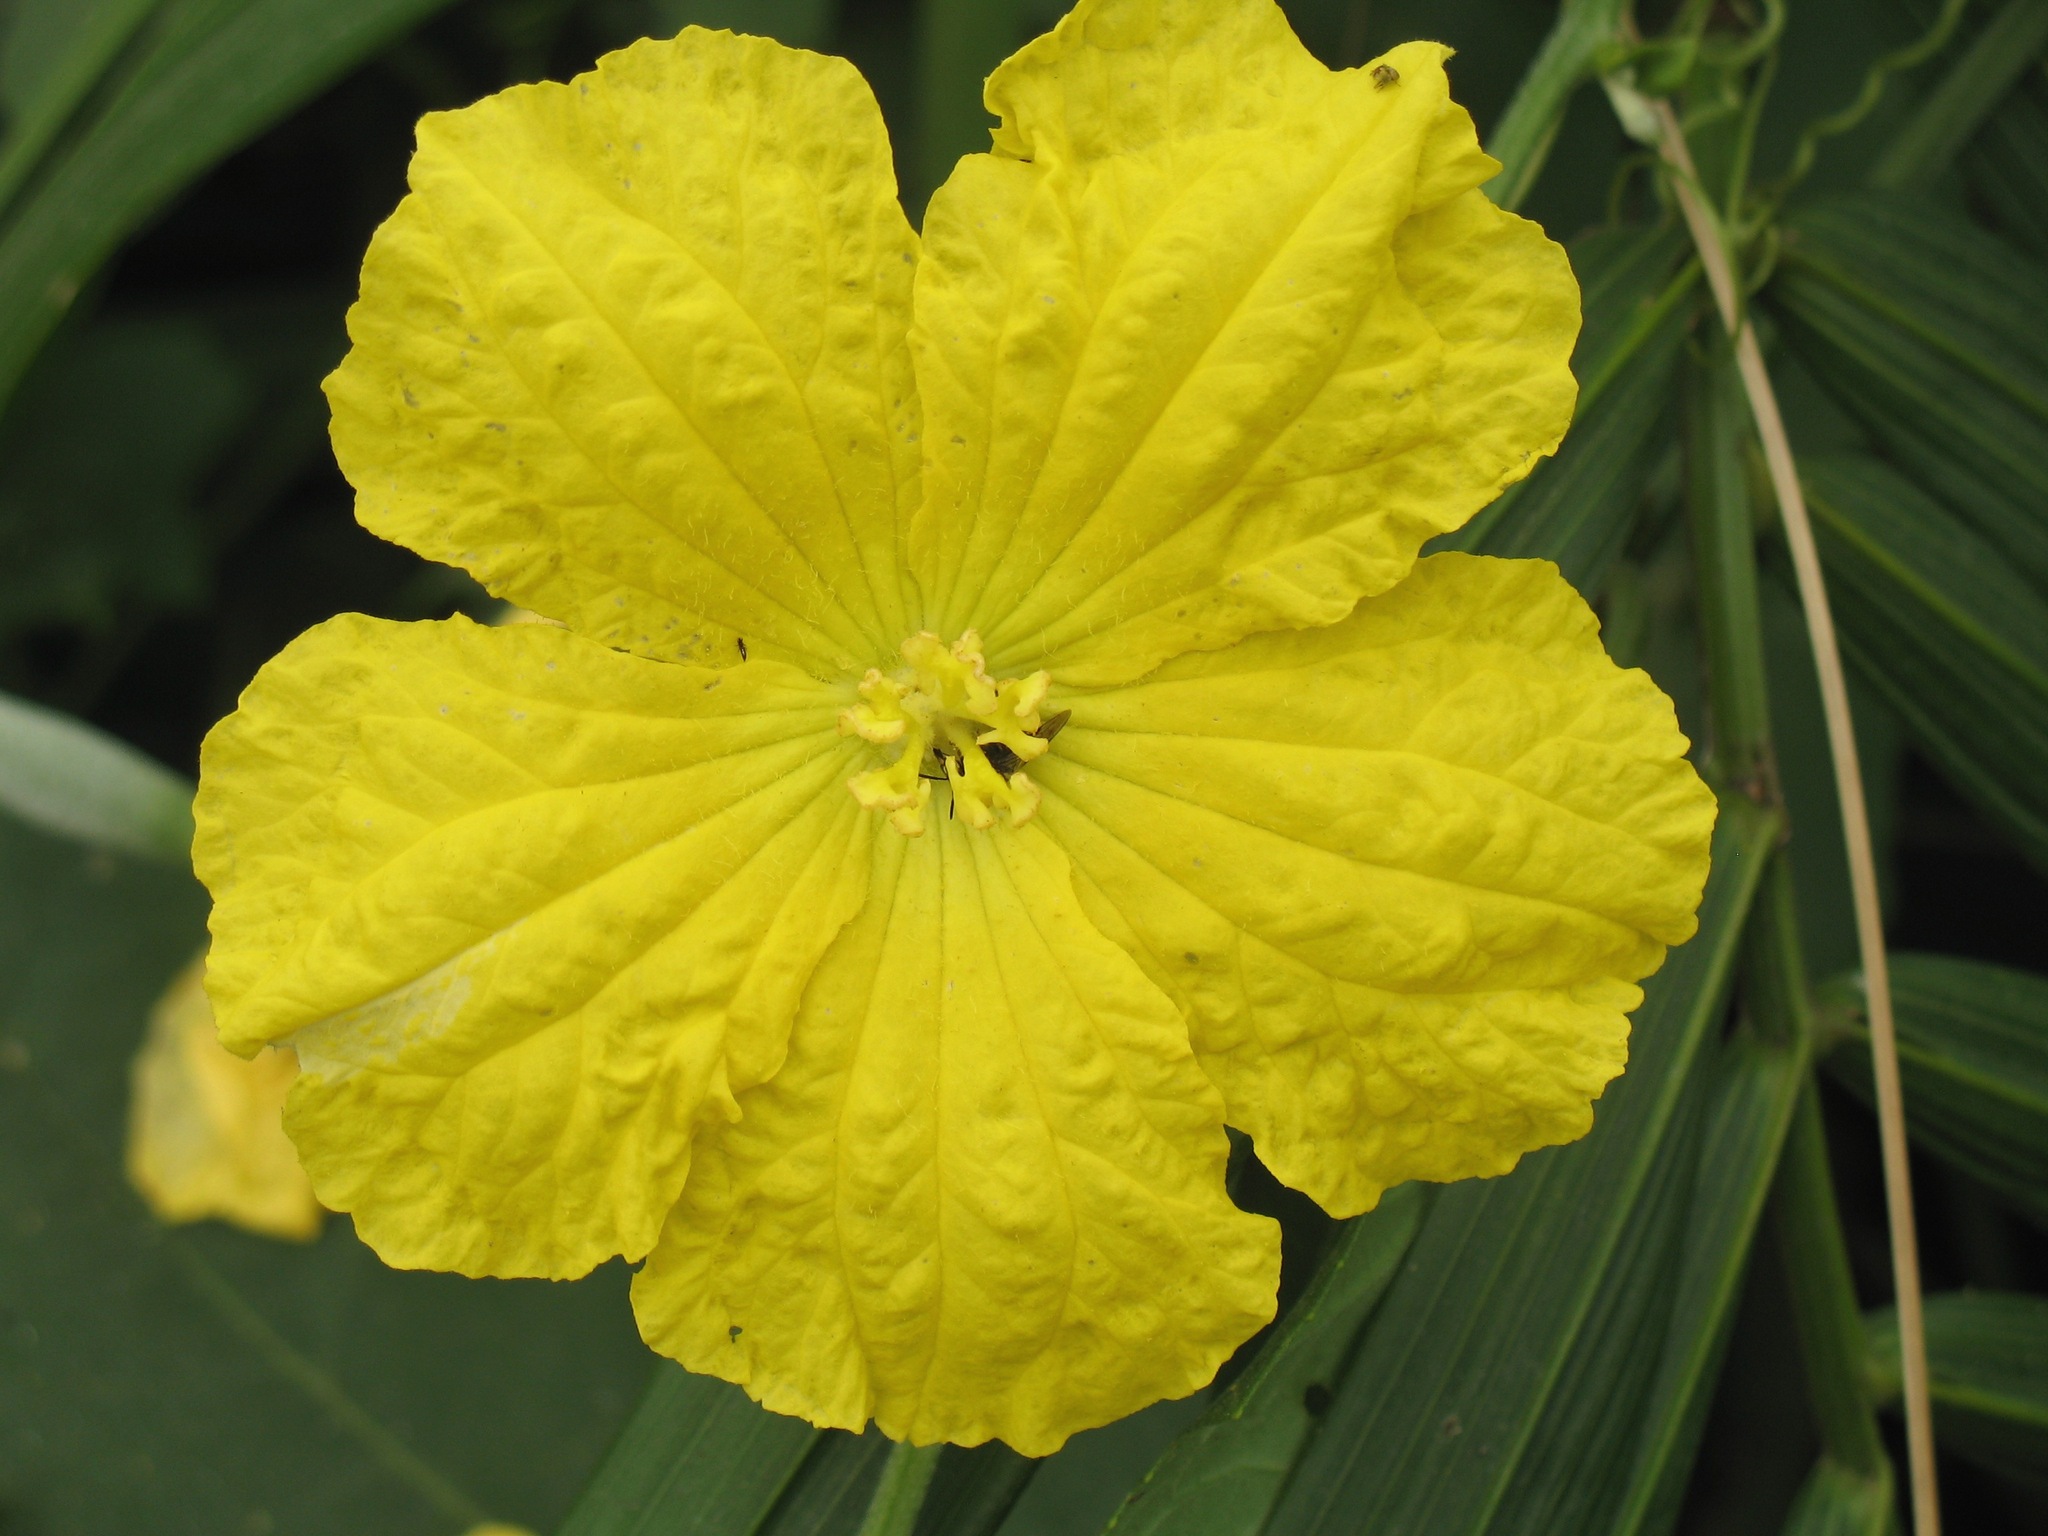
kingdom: Plantae
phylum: Tracheophyta
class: Magnoliopsida
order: Cucurbitales
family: Cucurbitaceae
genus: Luffa
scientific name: Luffa aegyptiaca
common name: Sponge gourd
